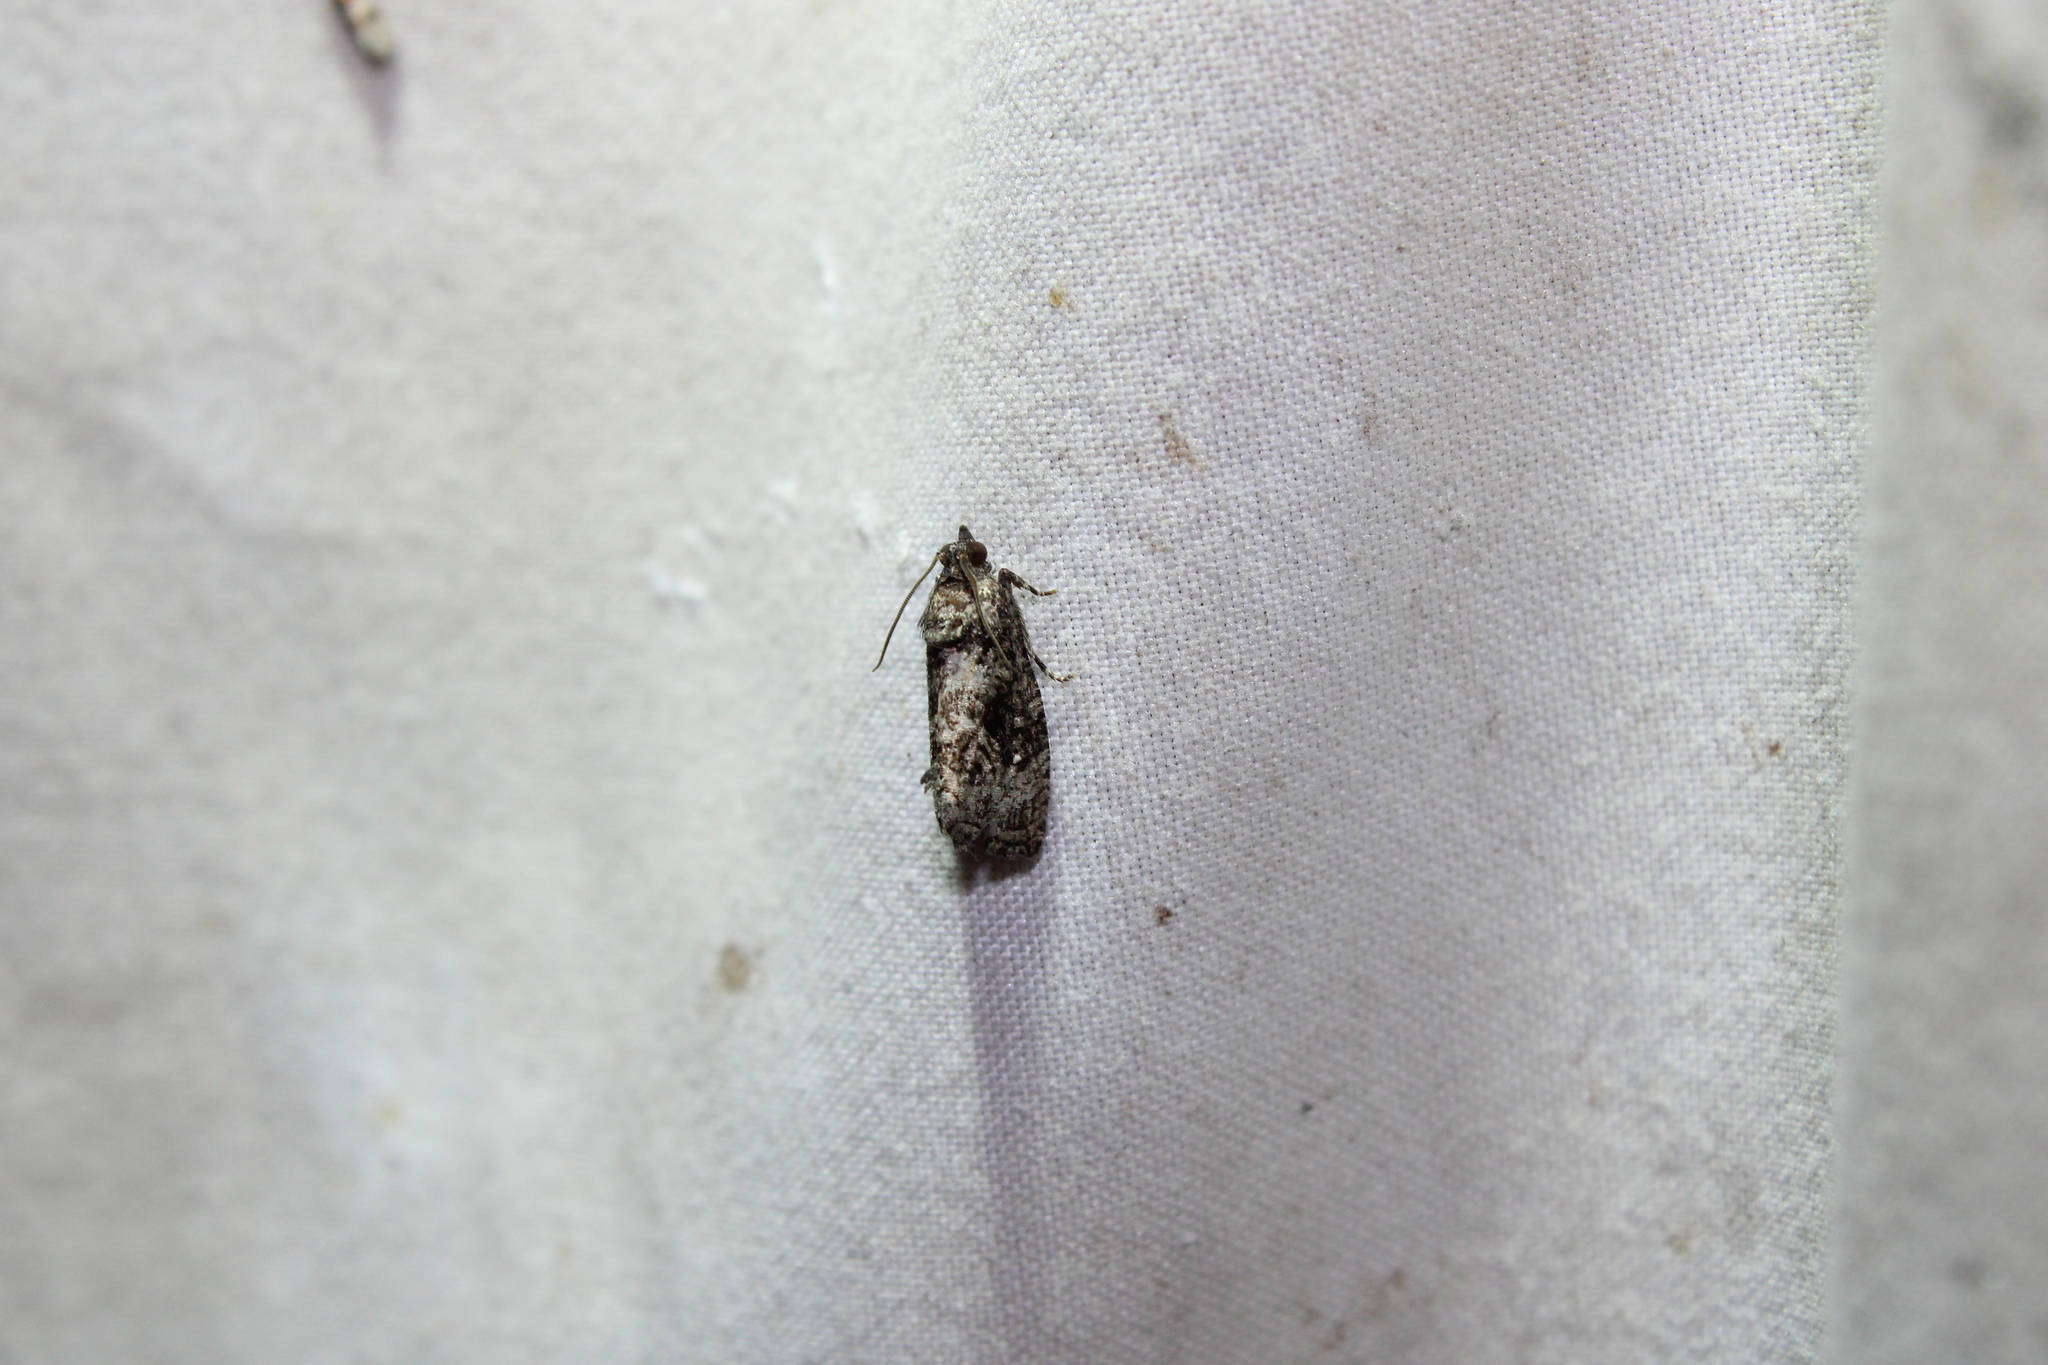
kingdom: Animalia
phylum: Arthropoda
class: Insecta
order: Lepidoptera
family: Tortricidae
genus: Gymnandrosoma
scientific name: Gymnandrosoma punctidiscanum
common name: Dotted ecdytolopha moth
